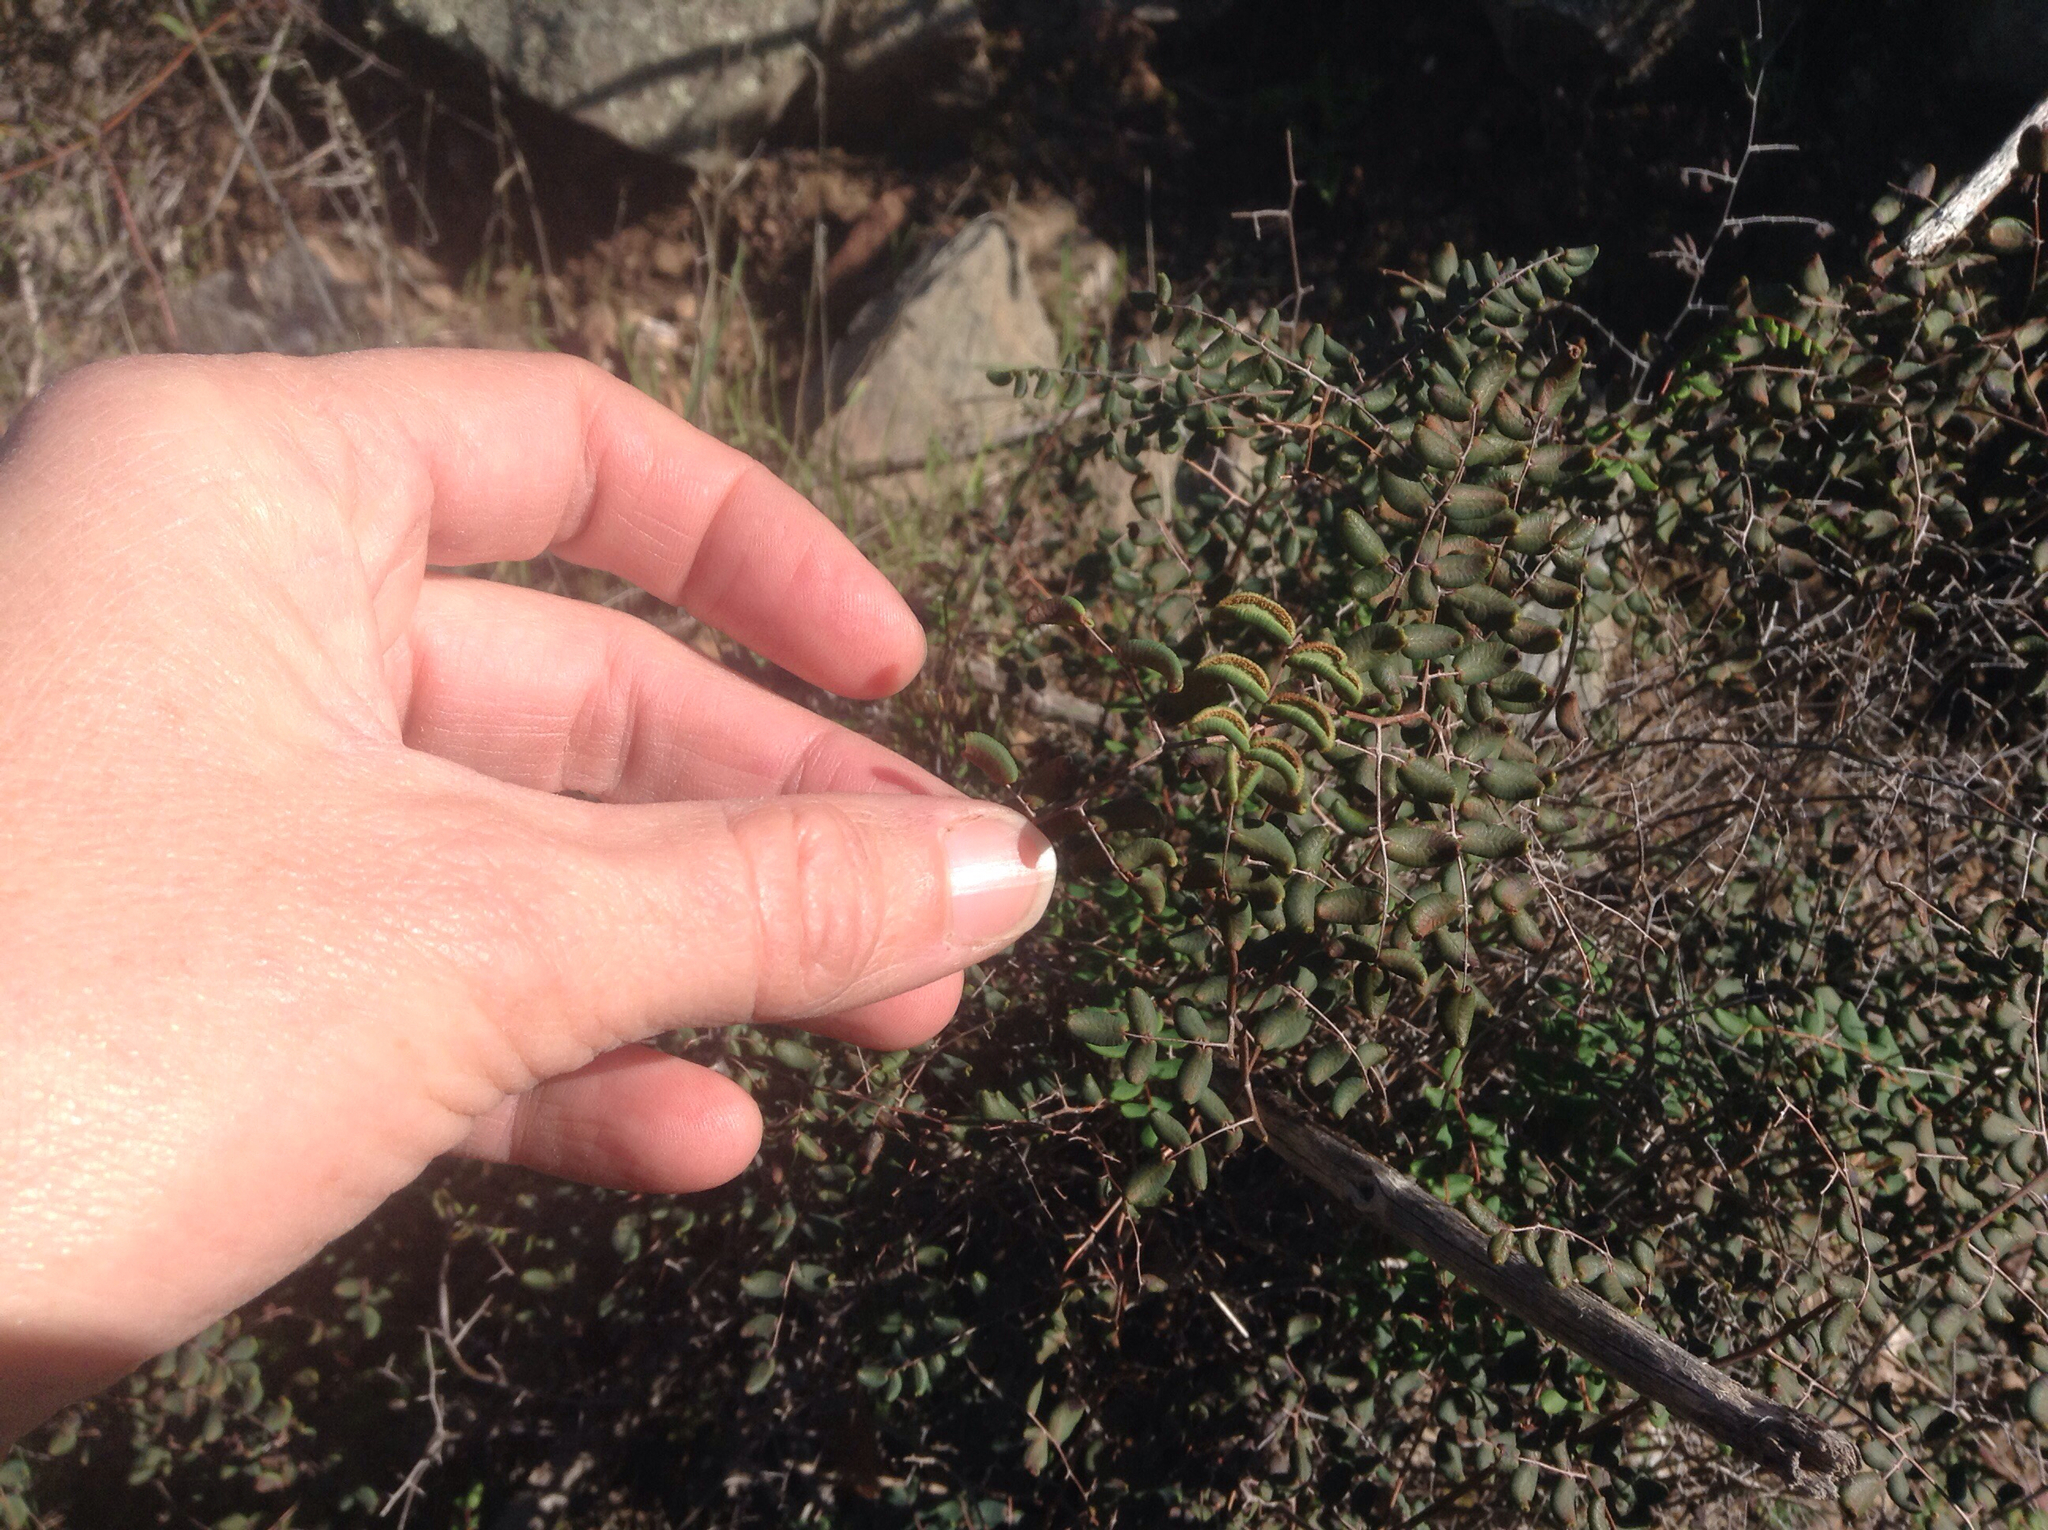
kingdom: Plantae
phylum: Tracheophyta
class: Polypodiopsida
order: Polypodiales
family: Pteridaceae
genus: Pellaea
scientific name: Pellaea andromedifolia
